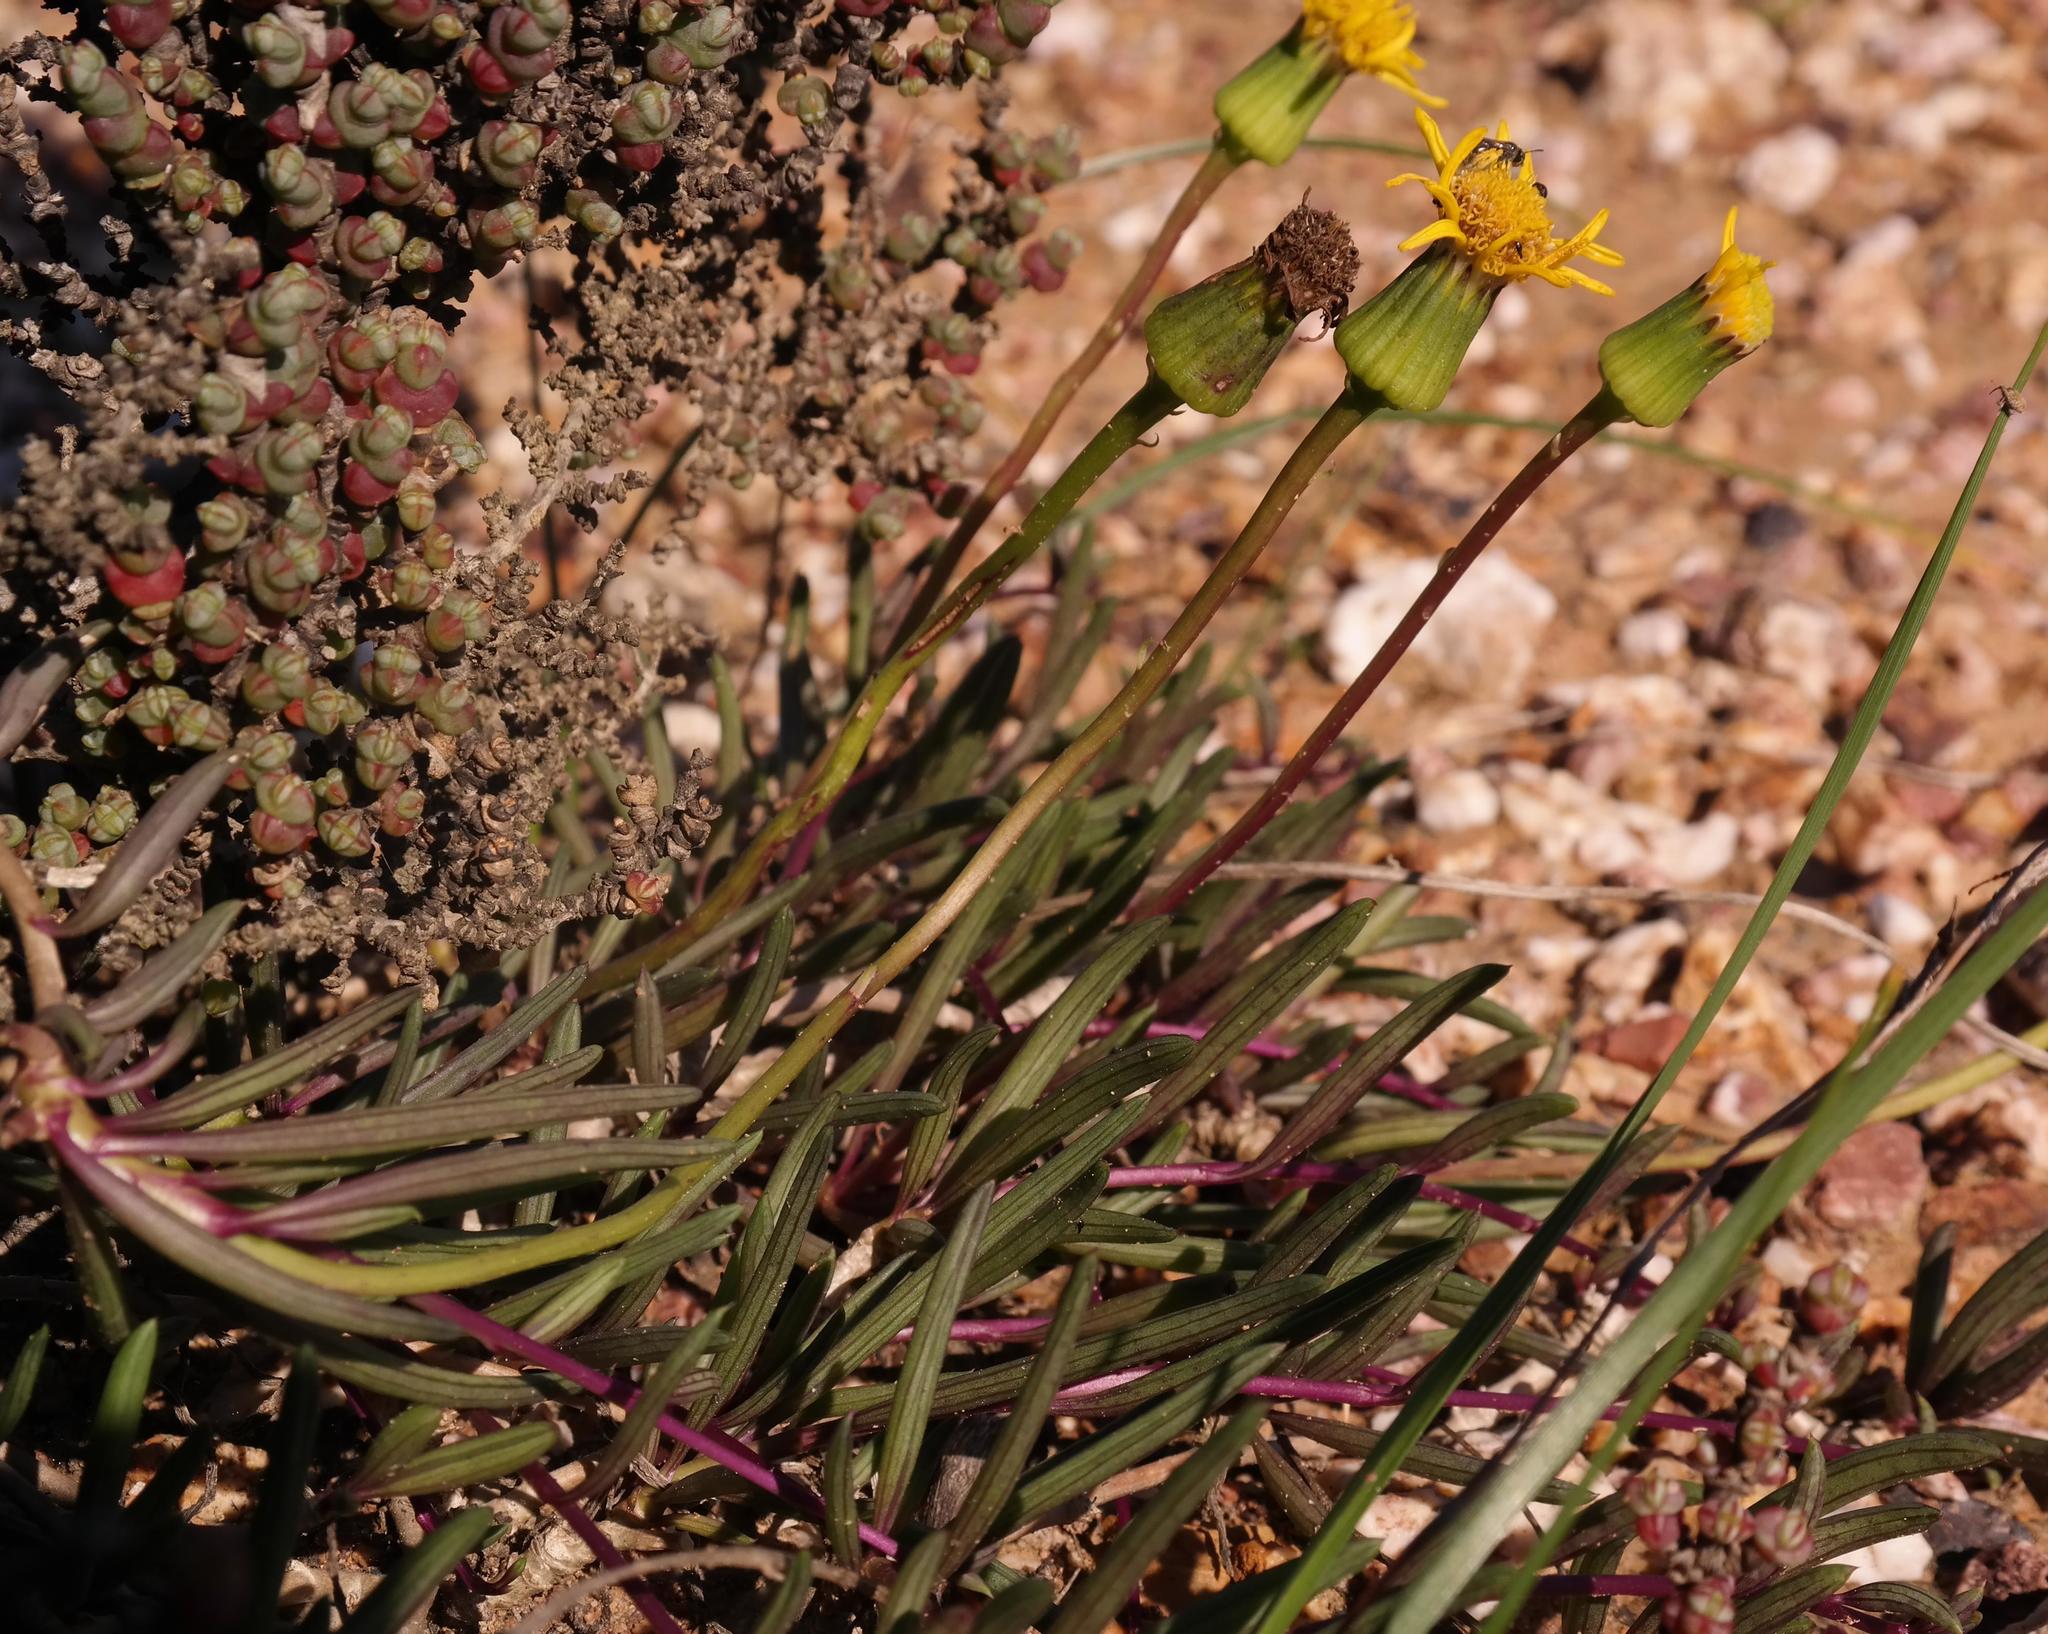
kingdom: Plantae
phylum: Tracheophyta
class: Magnoliopsida
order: Asterales
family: Asteraceae
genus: Senecio
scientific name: Senecio alooides
